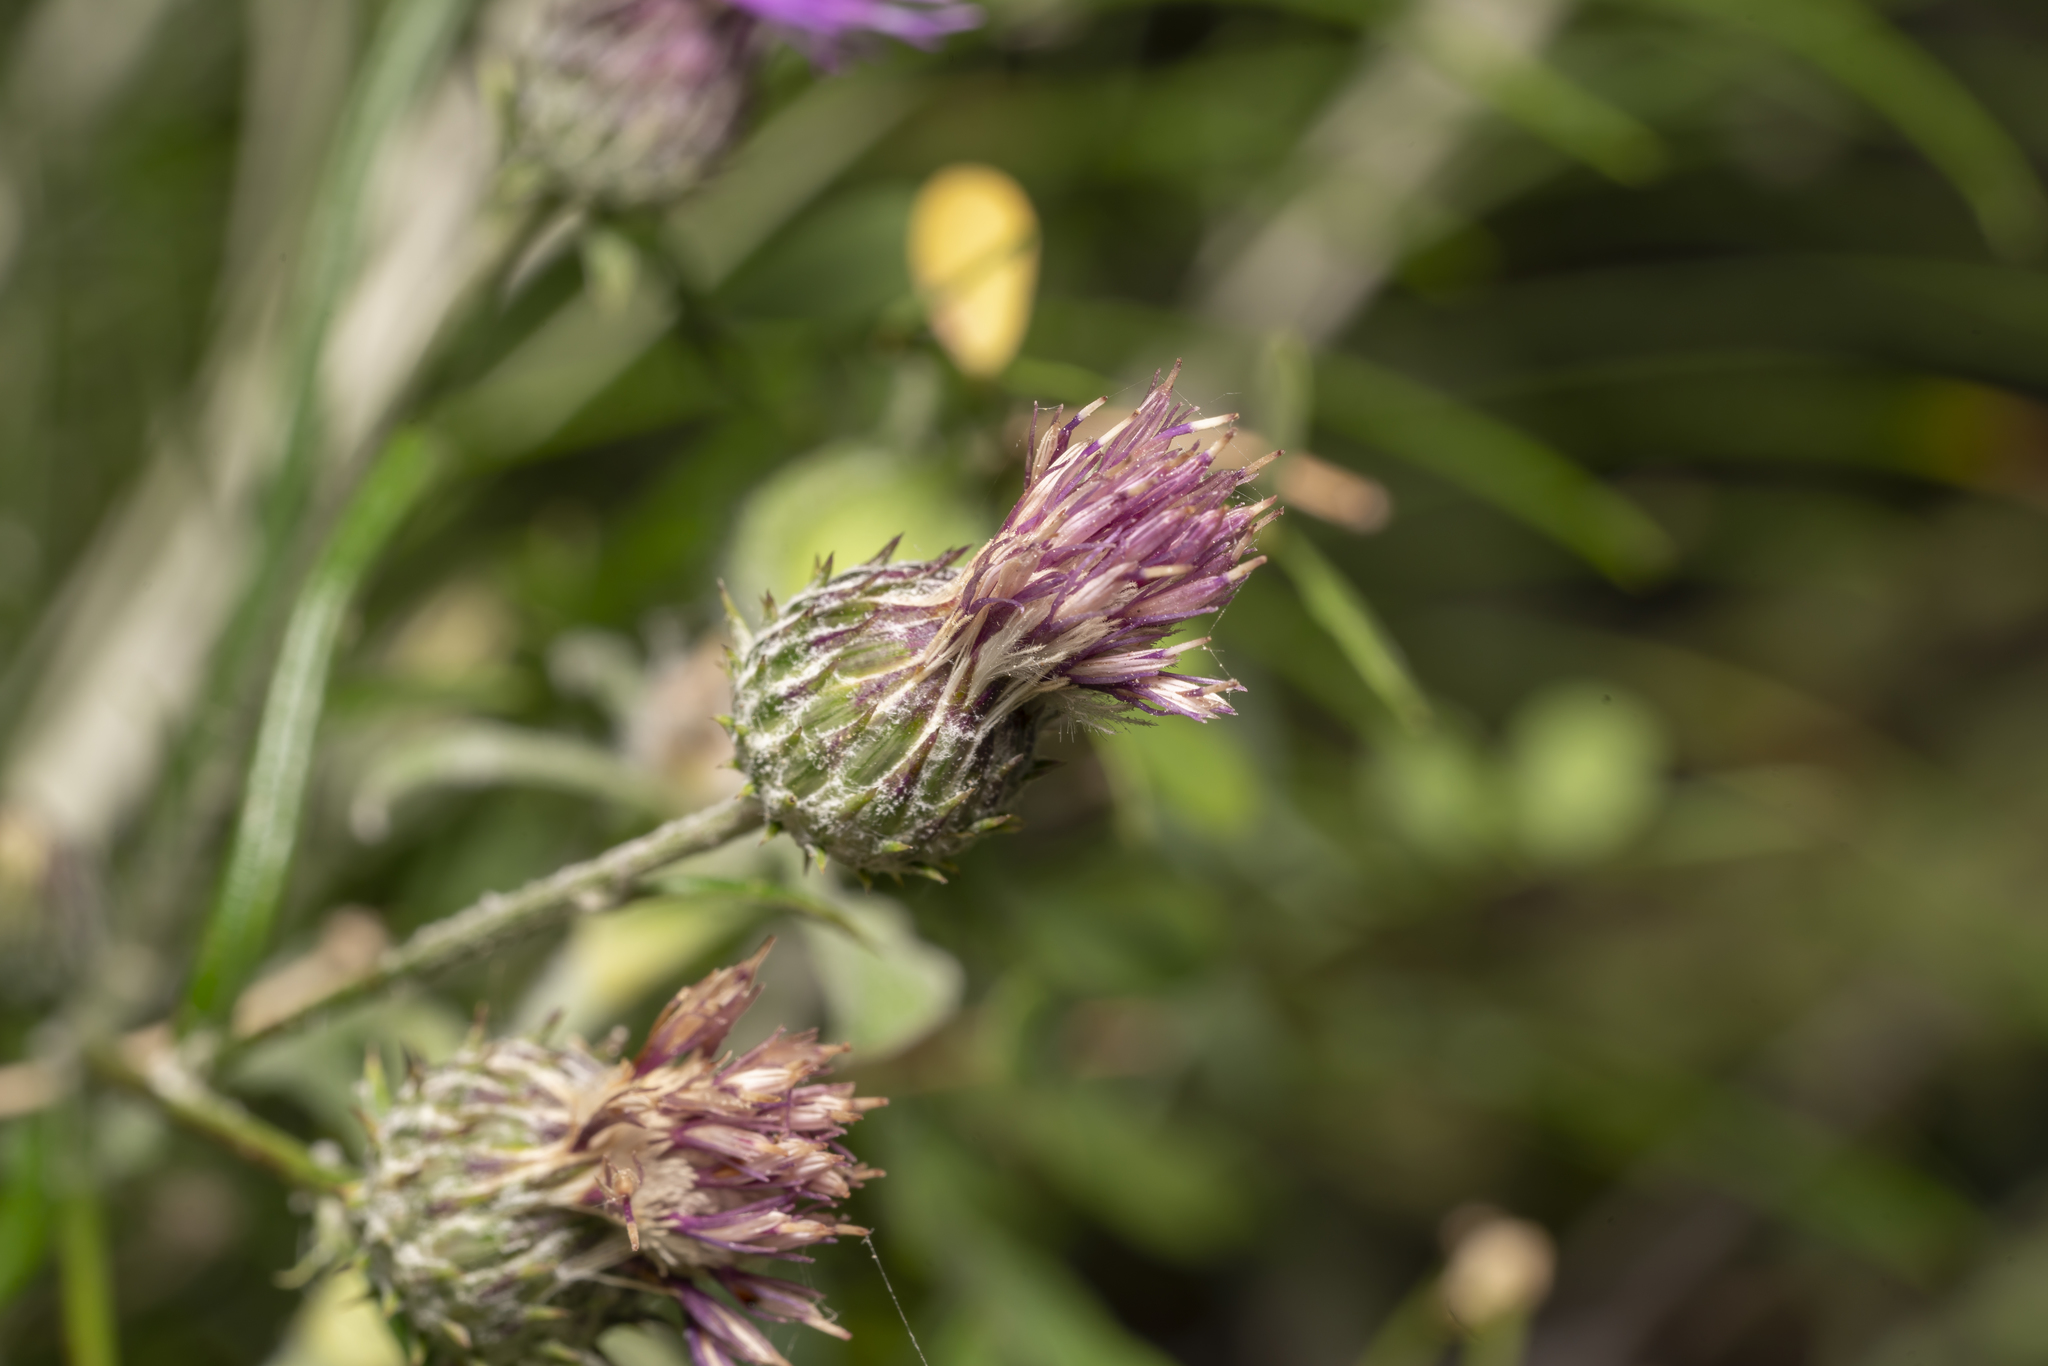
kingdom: Plantae
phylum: Tracheophyta
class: Magnoliopsida
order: Asterales
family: Asteraceae
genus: Ptilostemon
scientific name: Ptilostemon chamaepeuce
